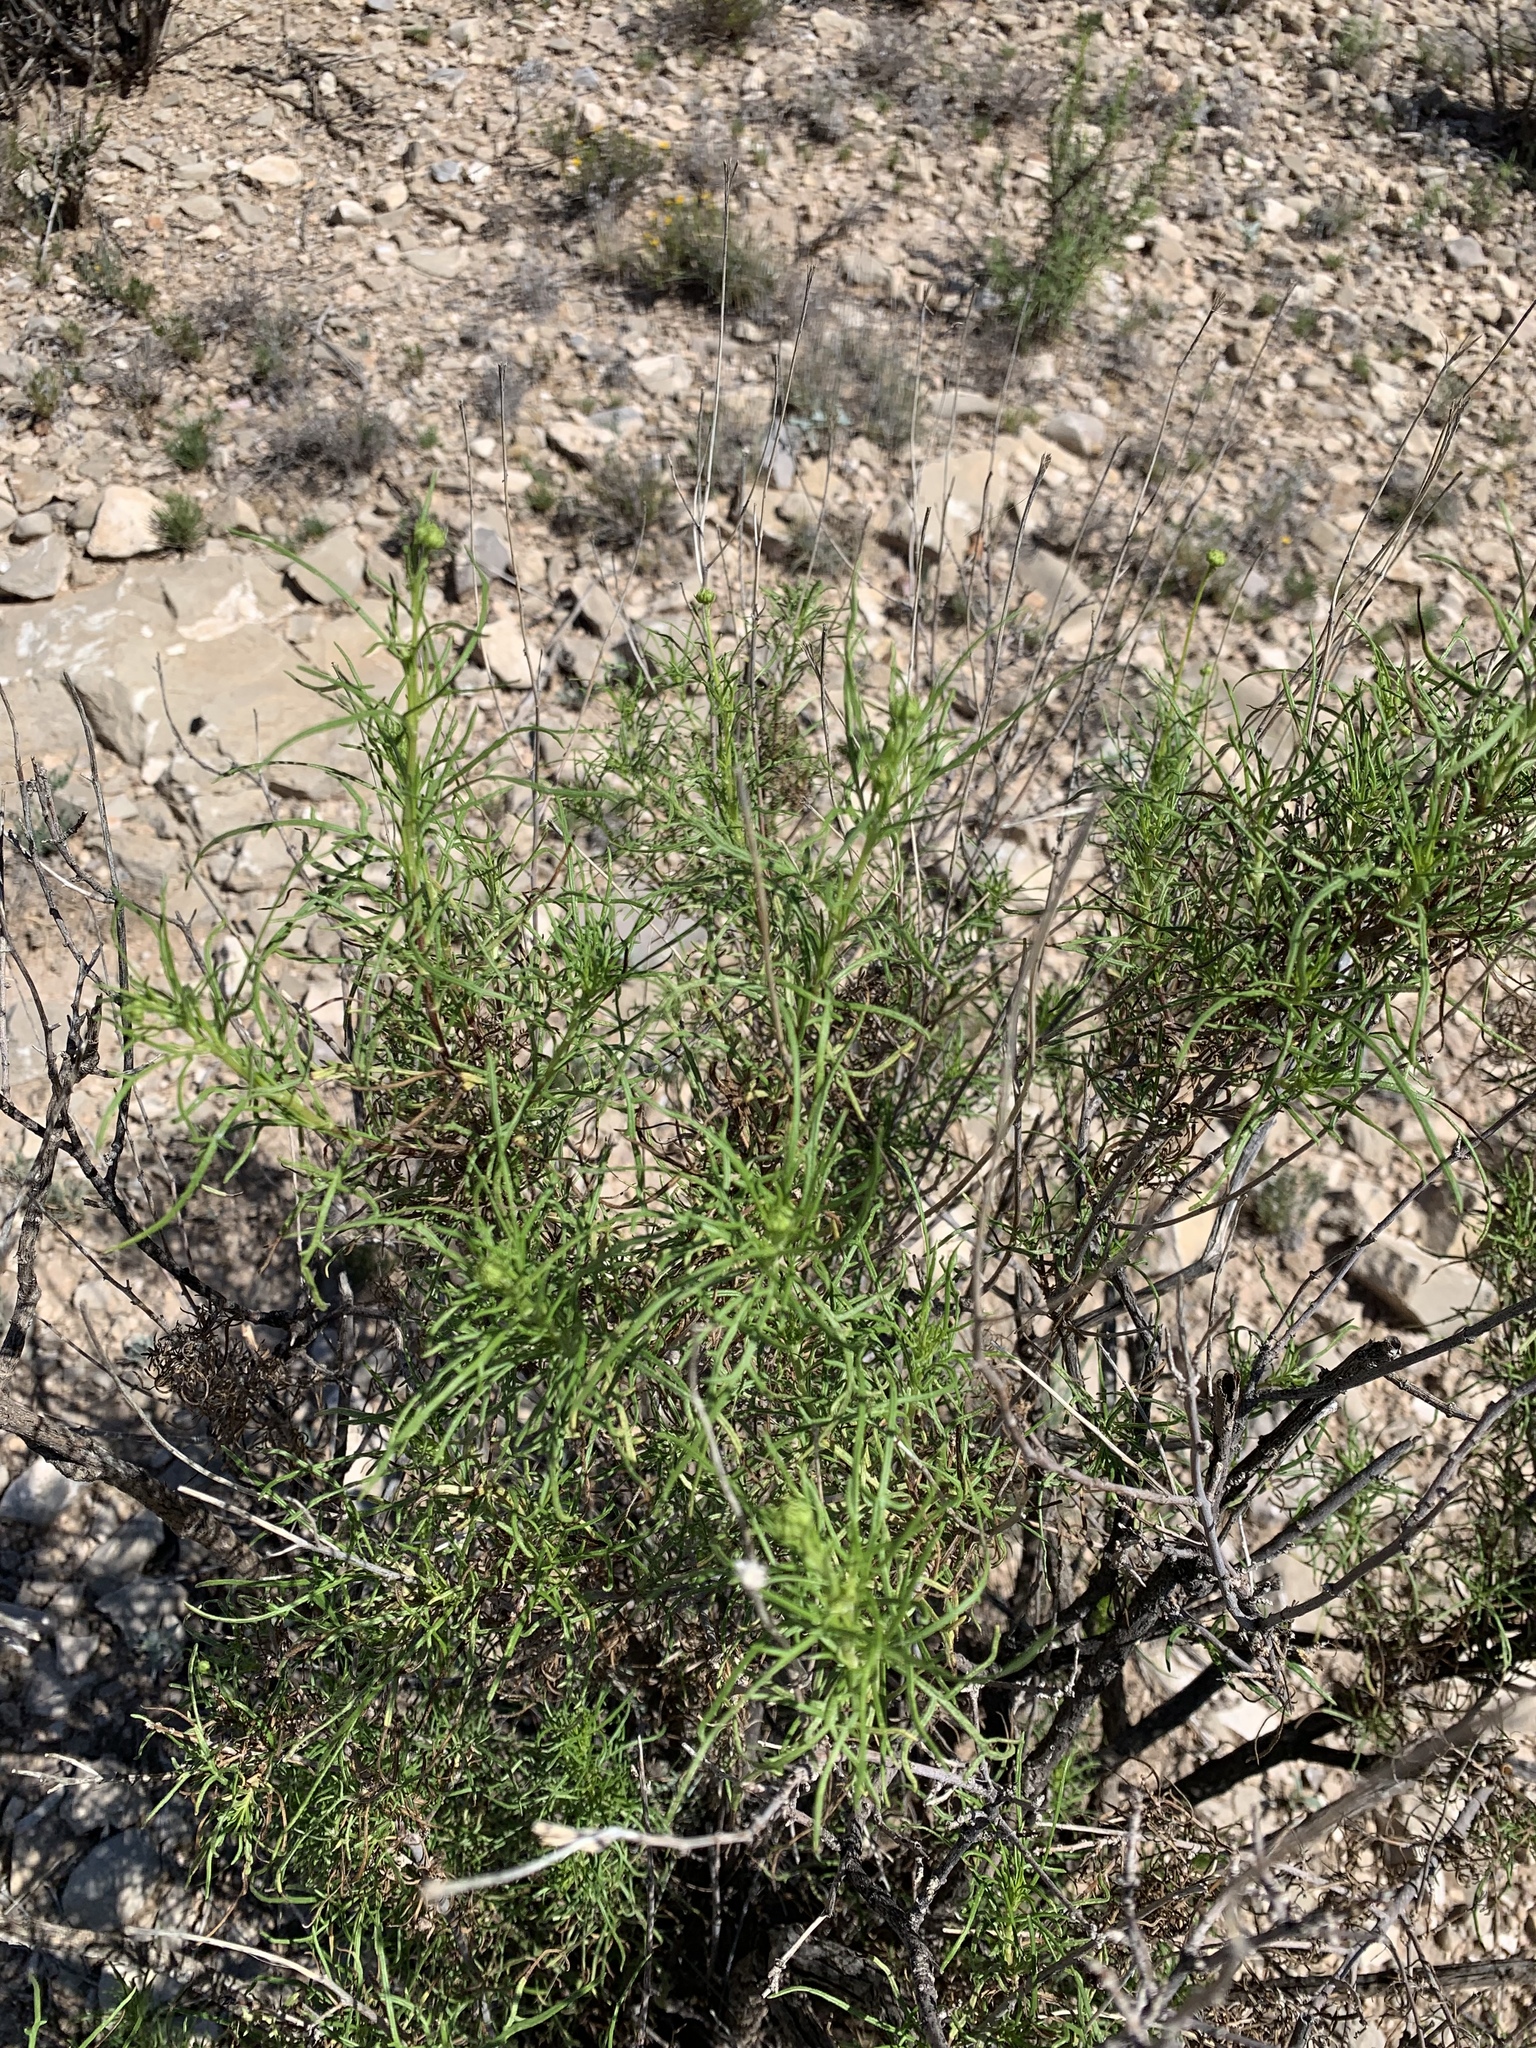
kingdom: Plantae
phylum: Tracheophyta
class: Magnoliopsida
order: Asterales
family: Asteraceae
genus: Sidneya
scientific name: Sidneya tenuifolia
